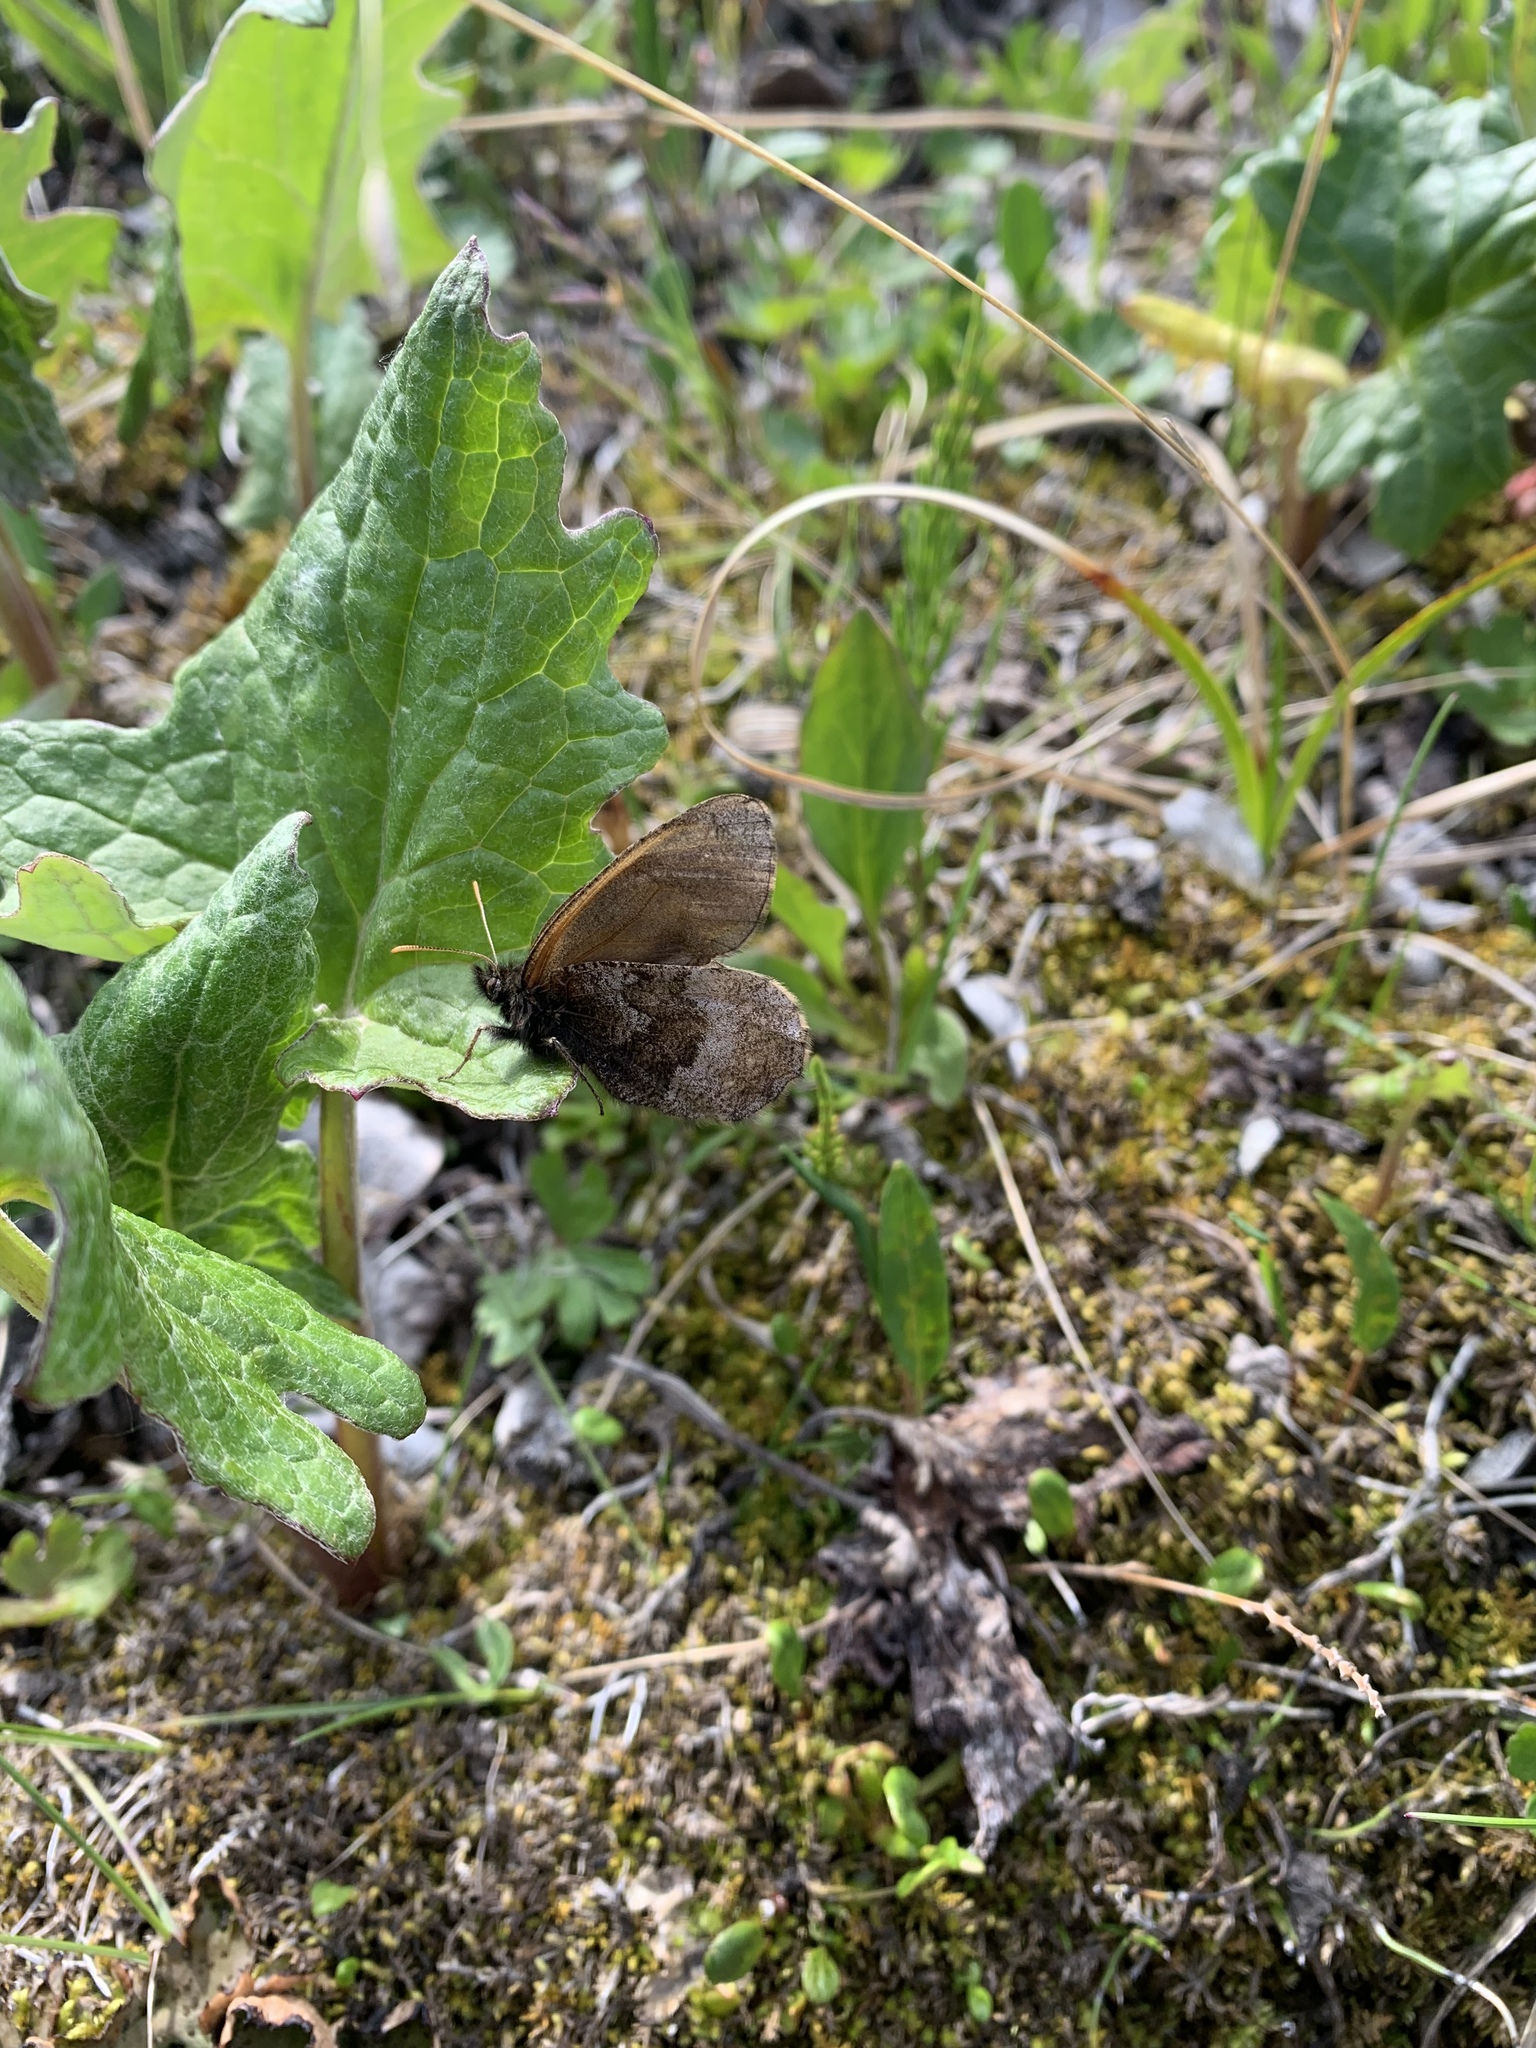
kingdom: Animalia
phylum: Arthropoda
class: Insecta
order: Lepidoptera
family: Nymphalidae
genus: Oeneis
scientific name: Oeneis bore
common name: Arctic grayling
